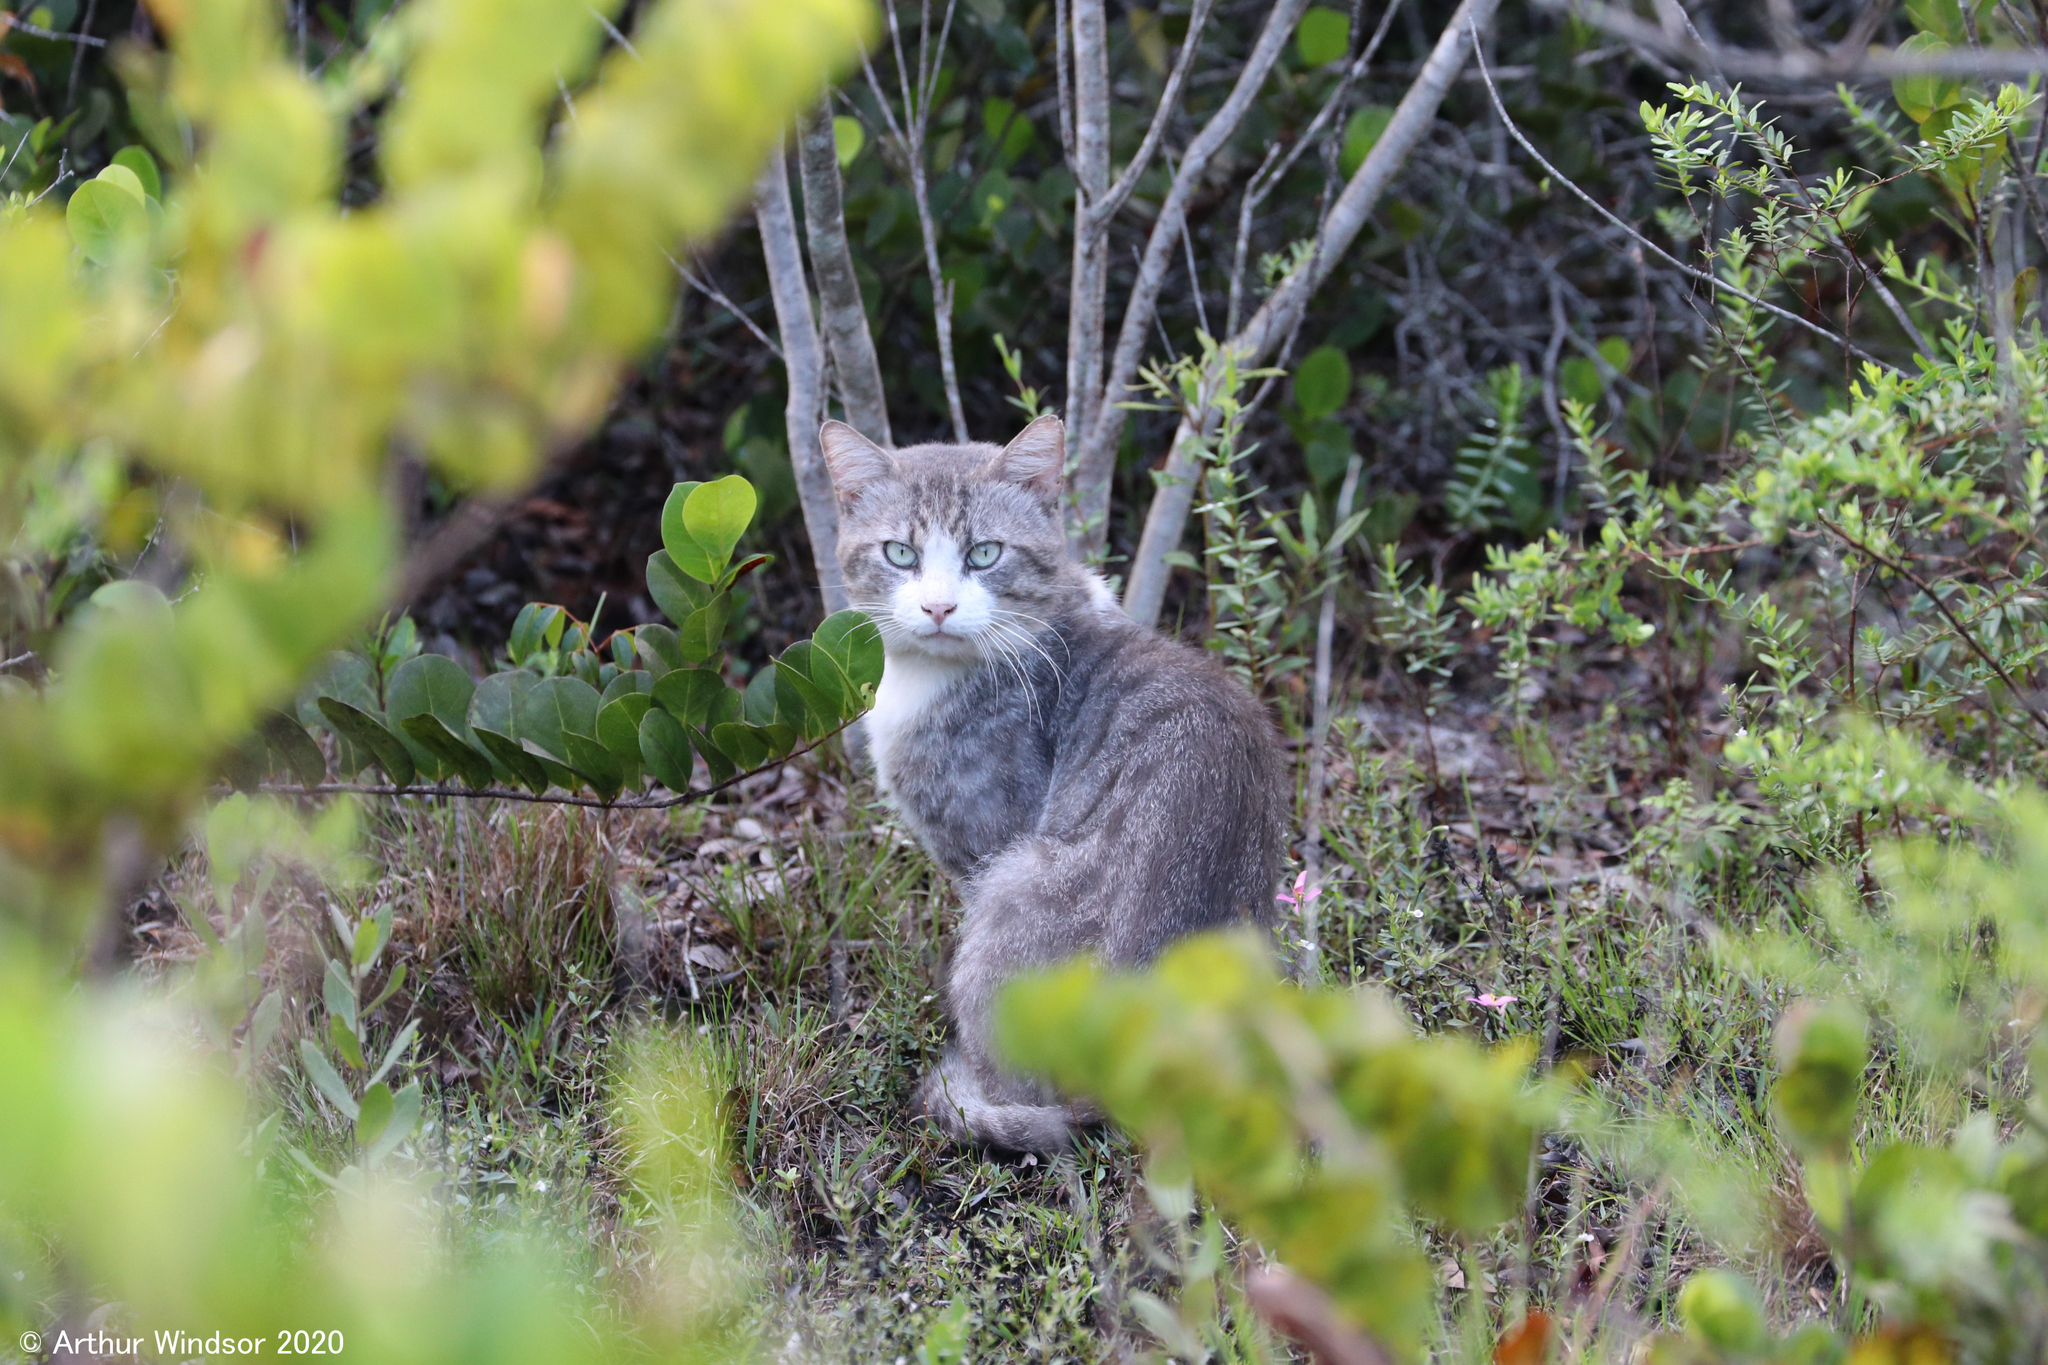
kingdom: Animalia
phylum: Chordata
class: Mammalia
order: Carnivora
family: Felidae
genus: Felis
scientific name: Felis catus
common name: Domestic cat
